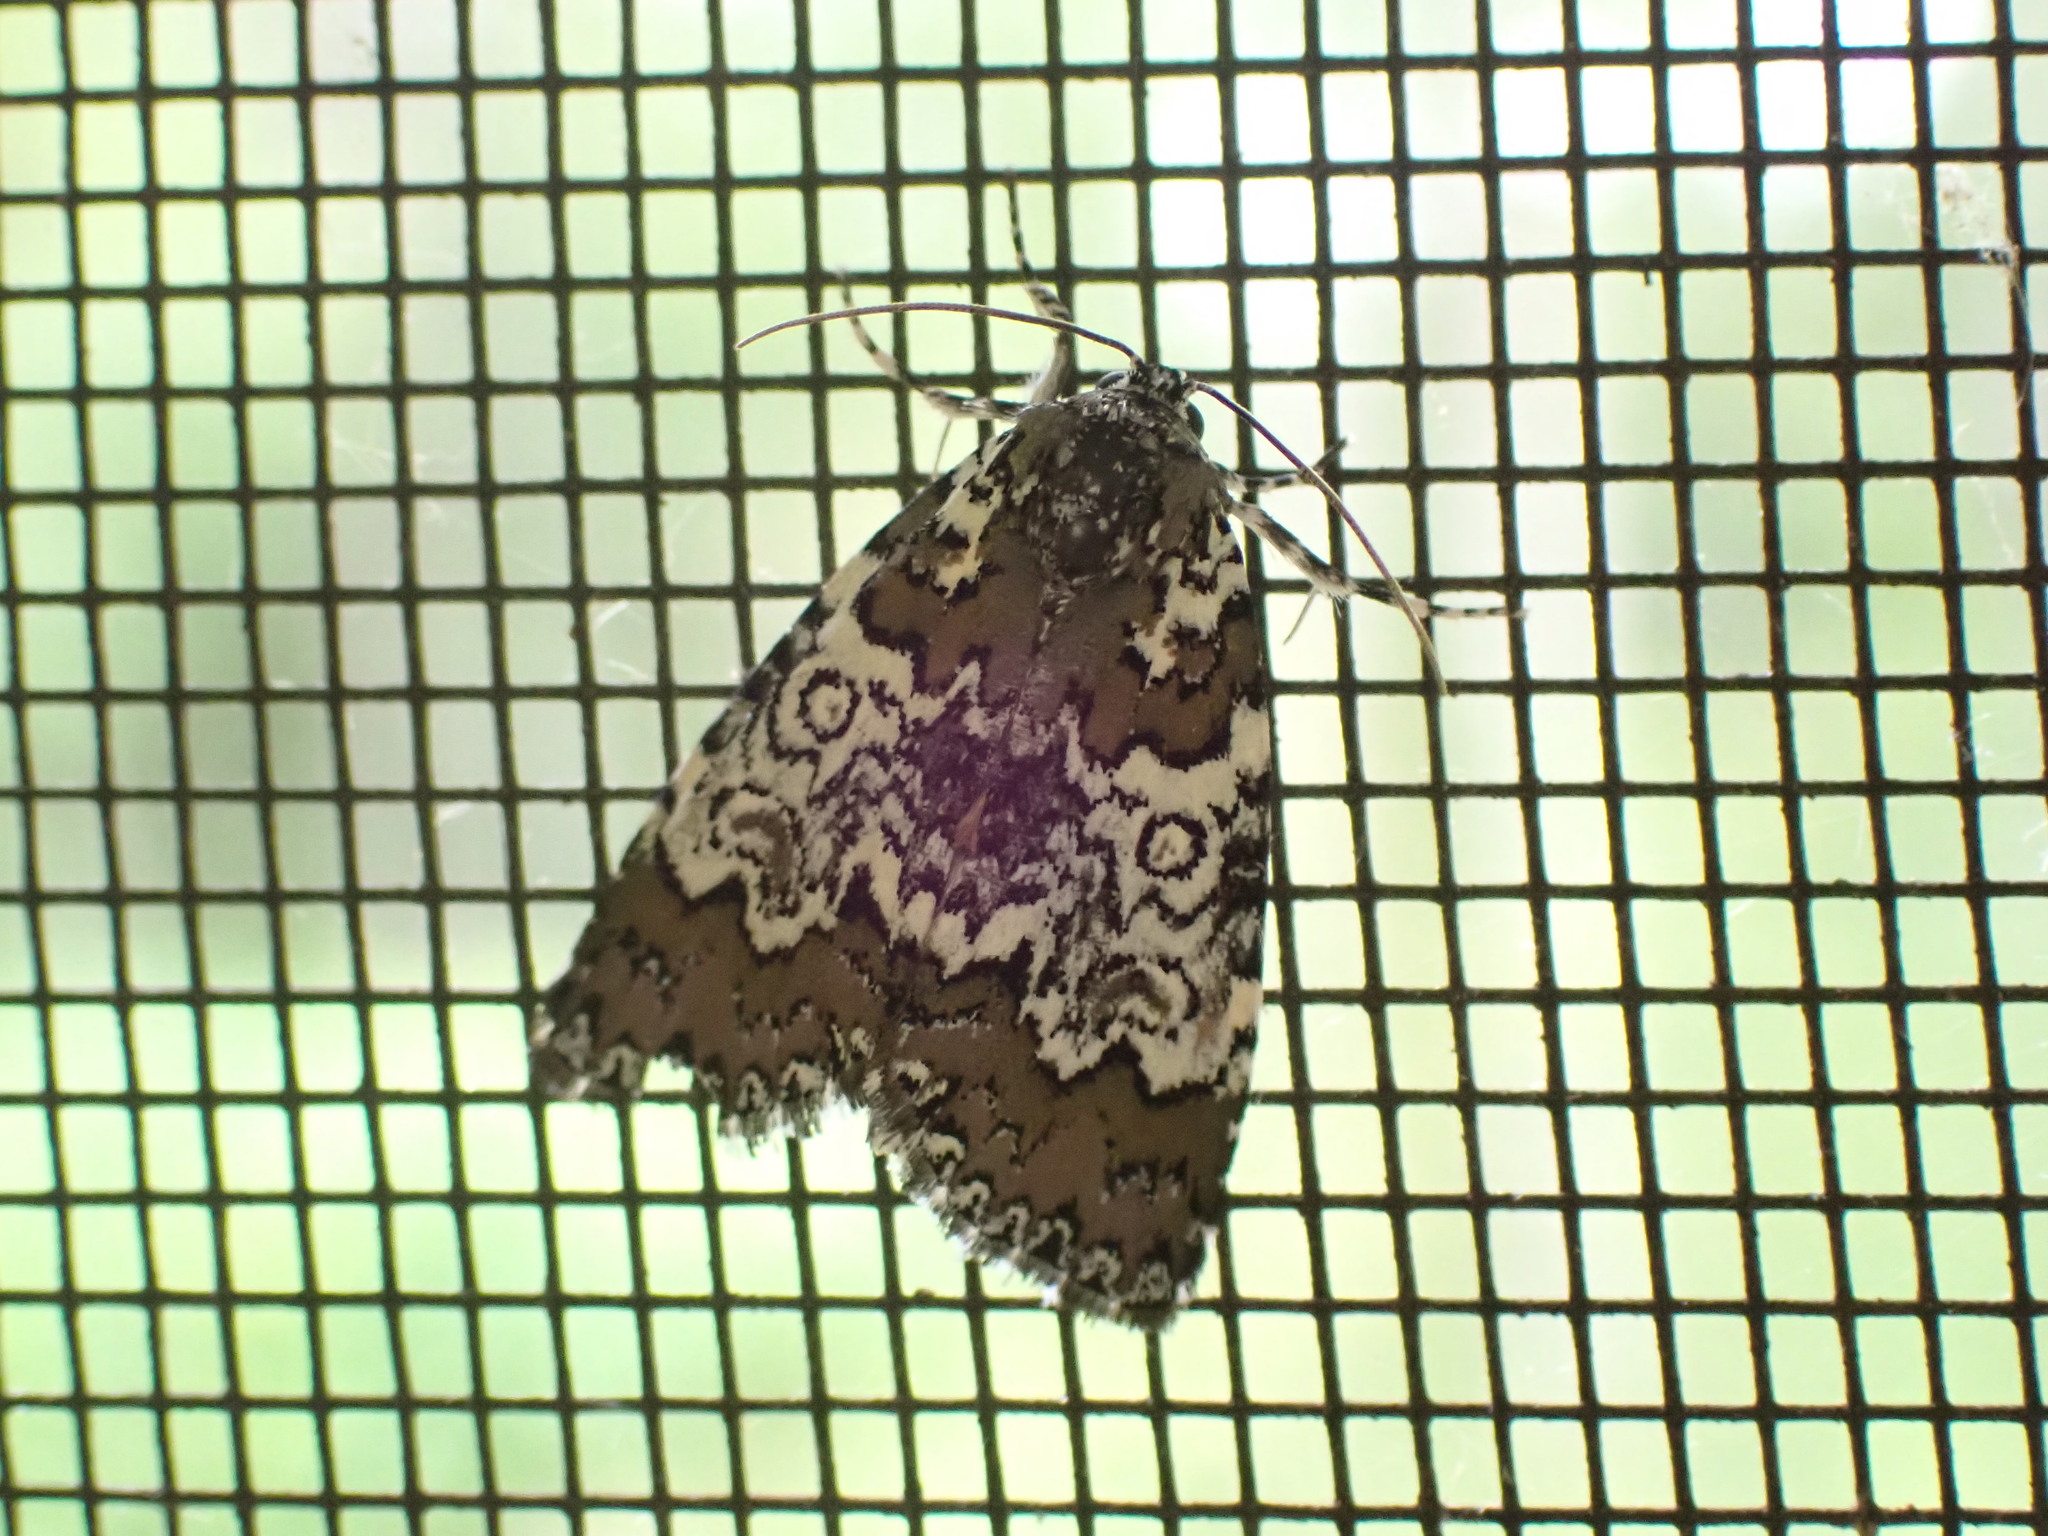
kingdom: Animalia
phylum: Arthropoda
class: Insecta
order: Lepidoptera
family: Noctuidae
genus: Cerma
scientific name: Cerma cora
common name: Bird dropping moth
